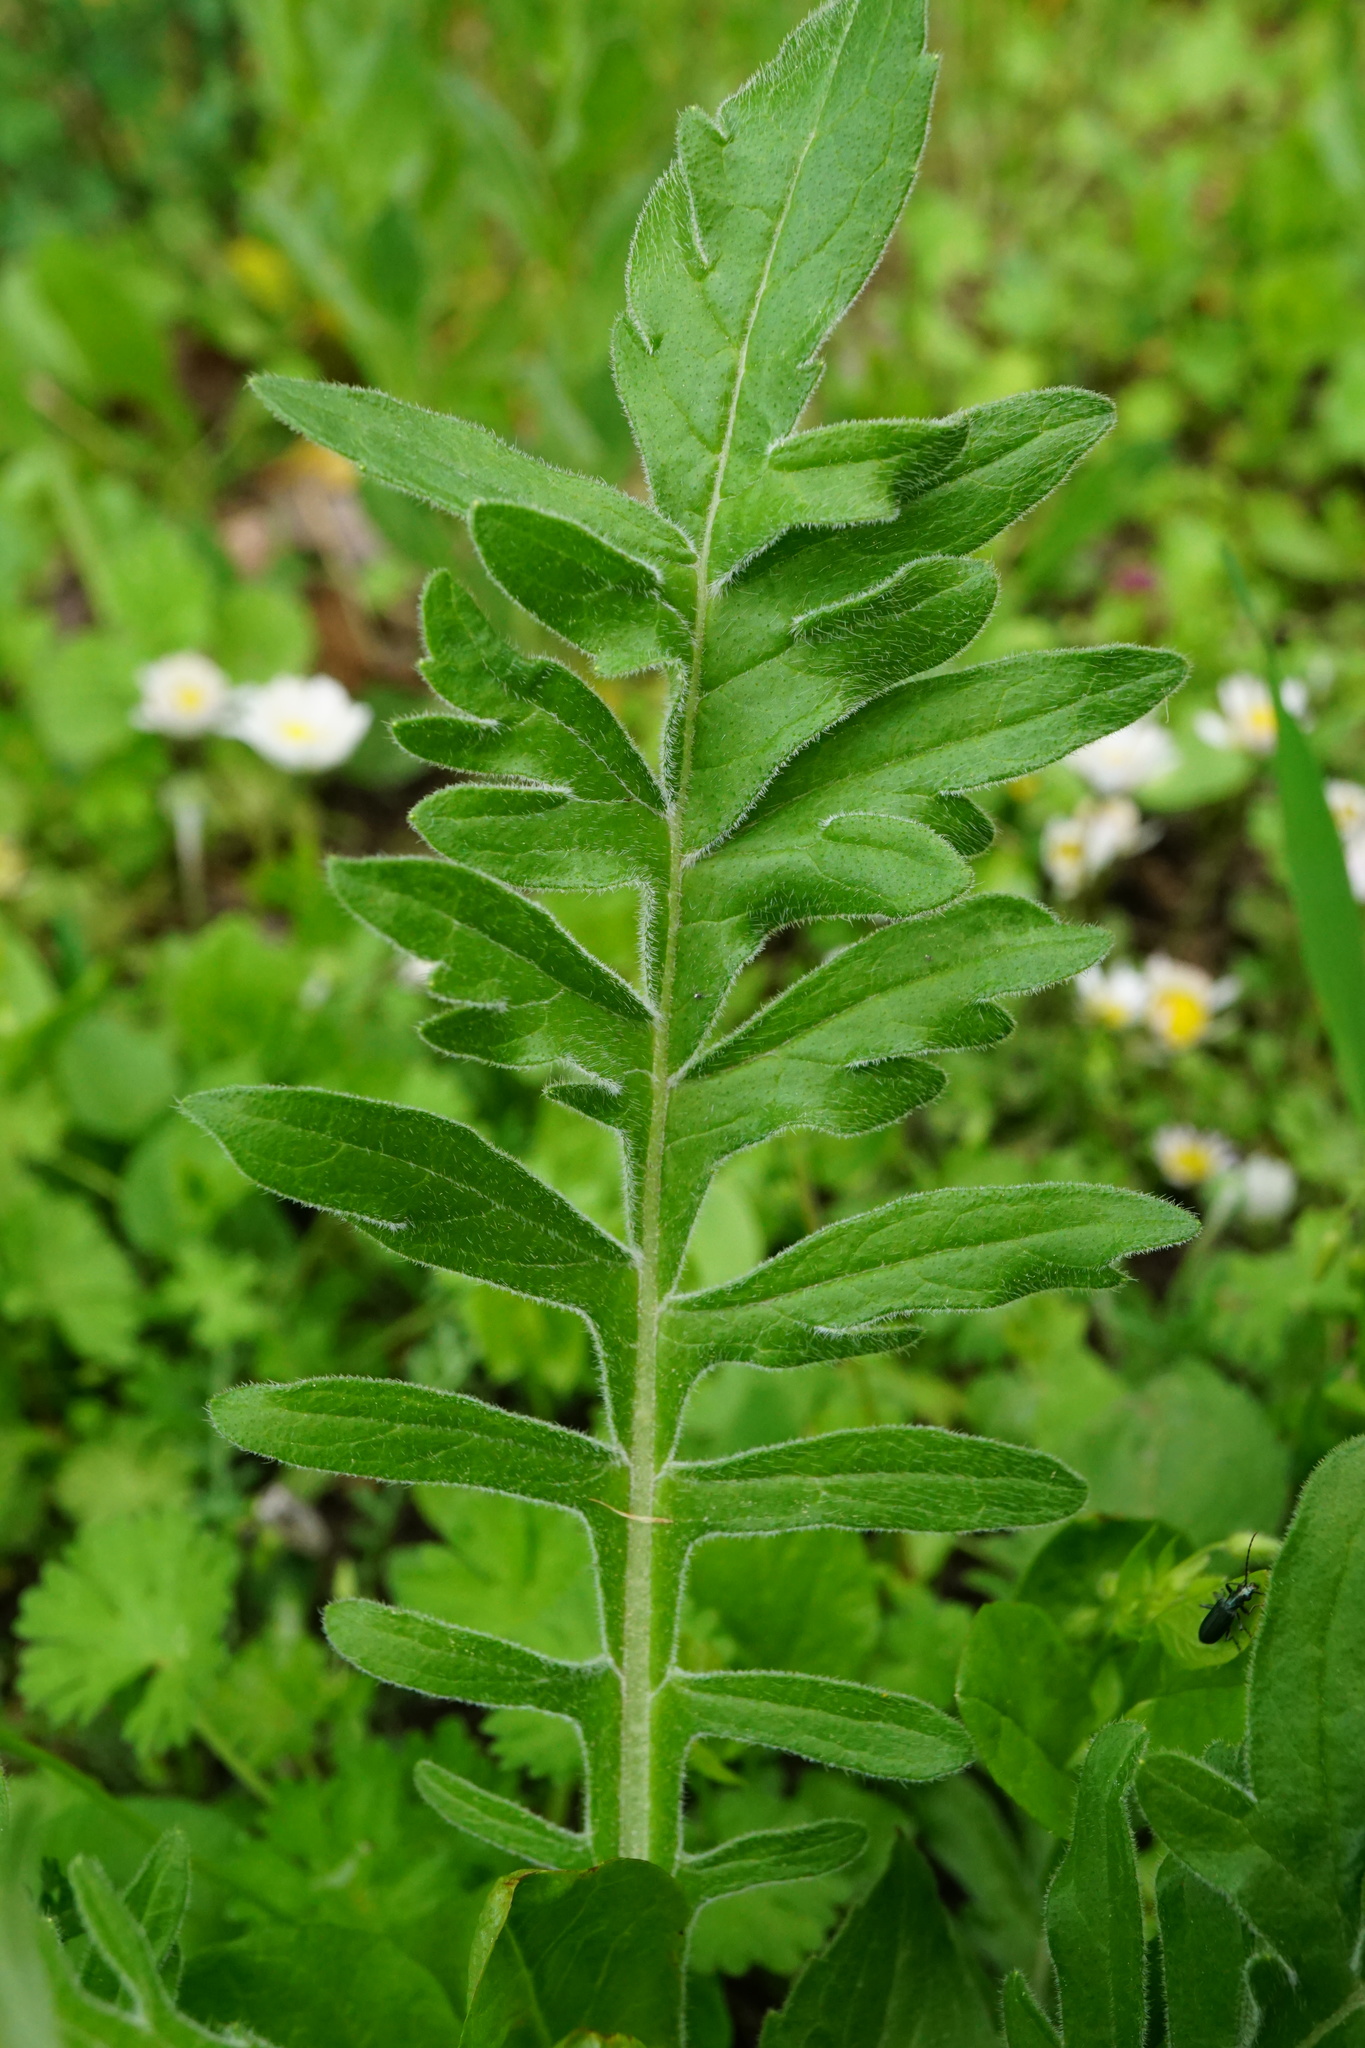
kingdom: Plantae
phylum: Tracheophyta
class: Magnoliopsida
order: Dipsacales
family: Caprifoliaceae
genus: Knautia
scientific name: Knautia arvensis
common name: Field scabiosa
